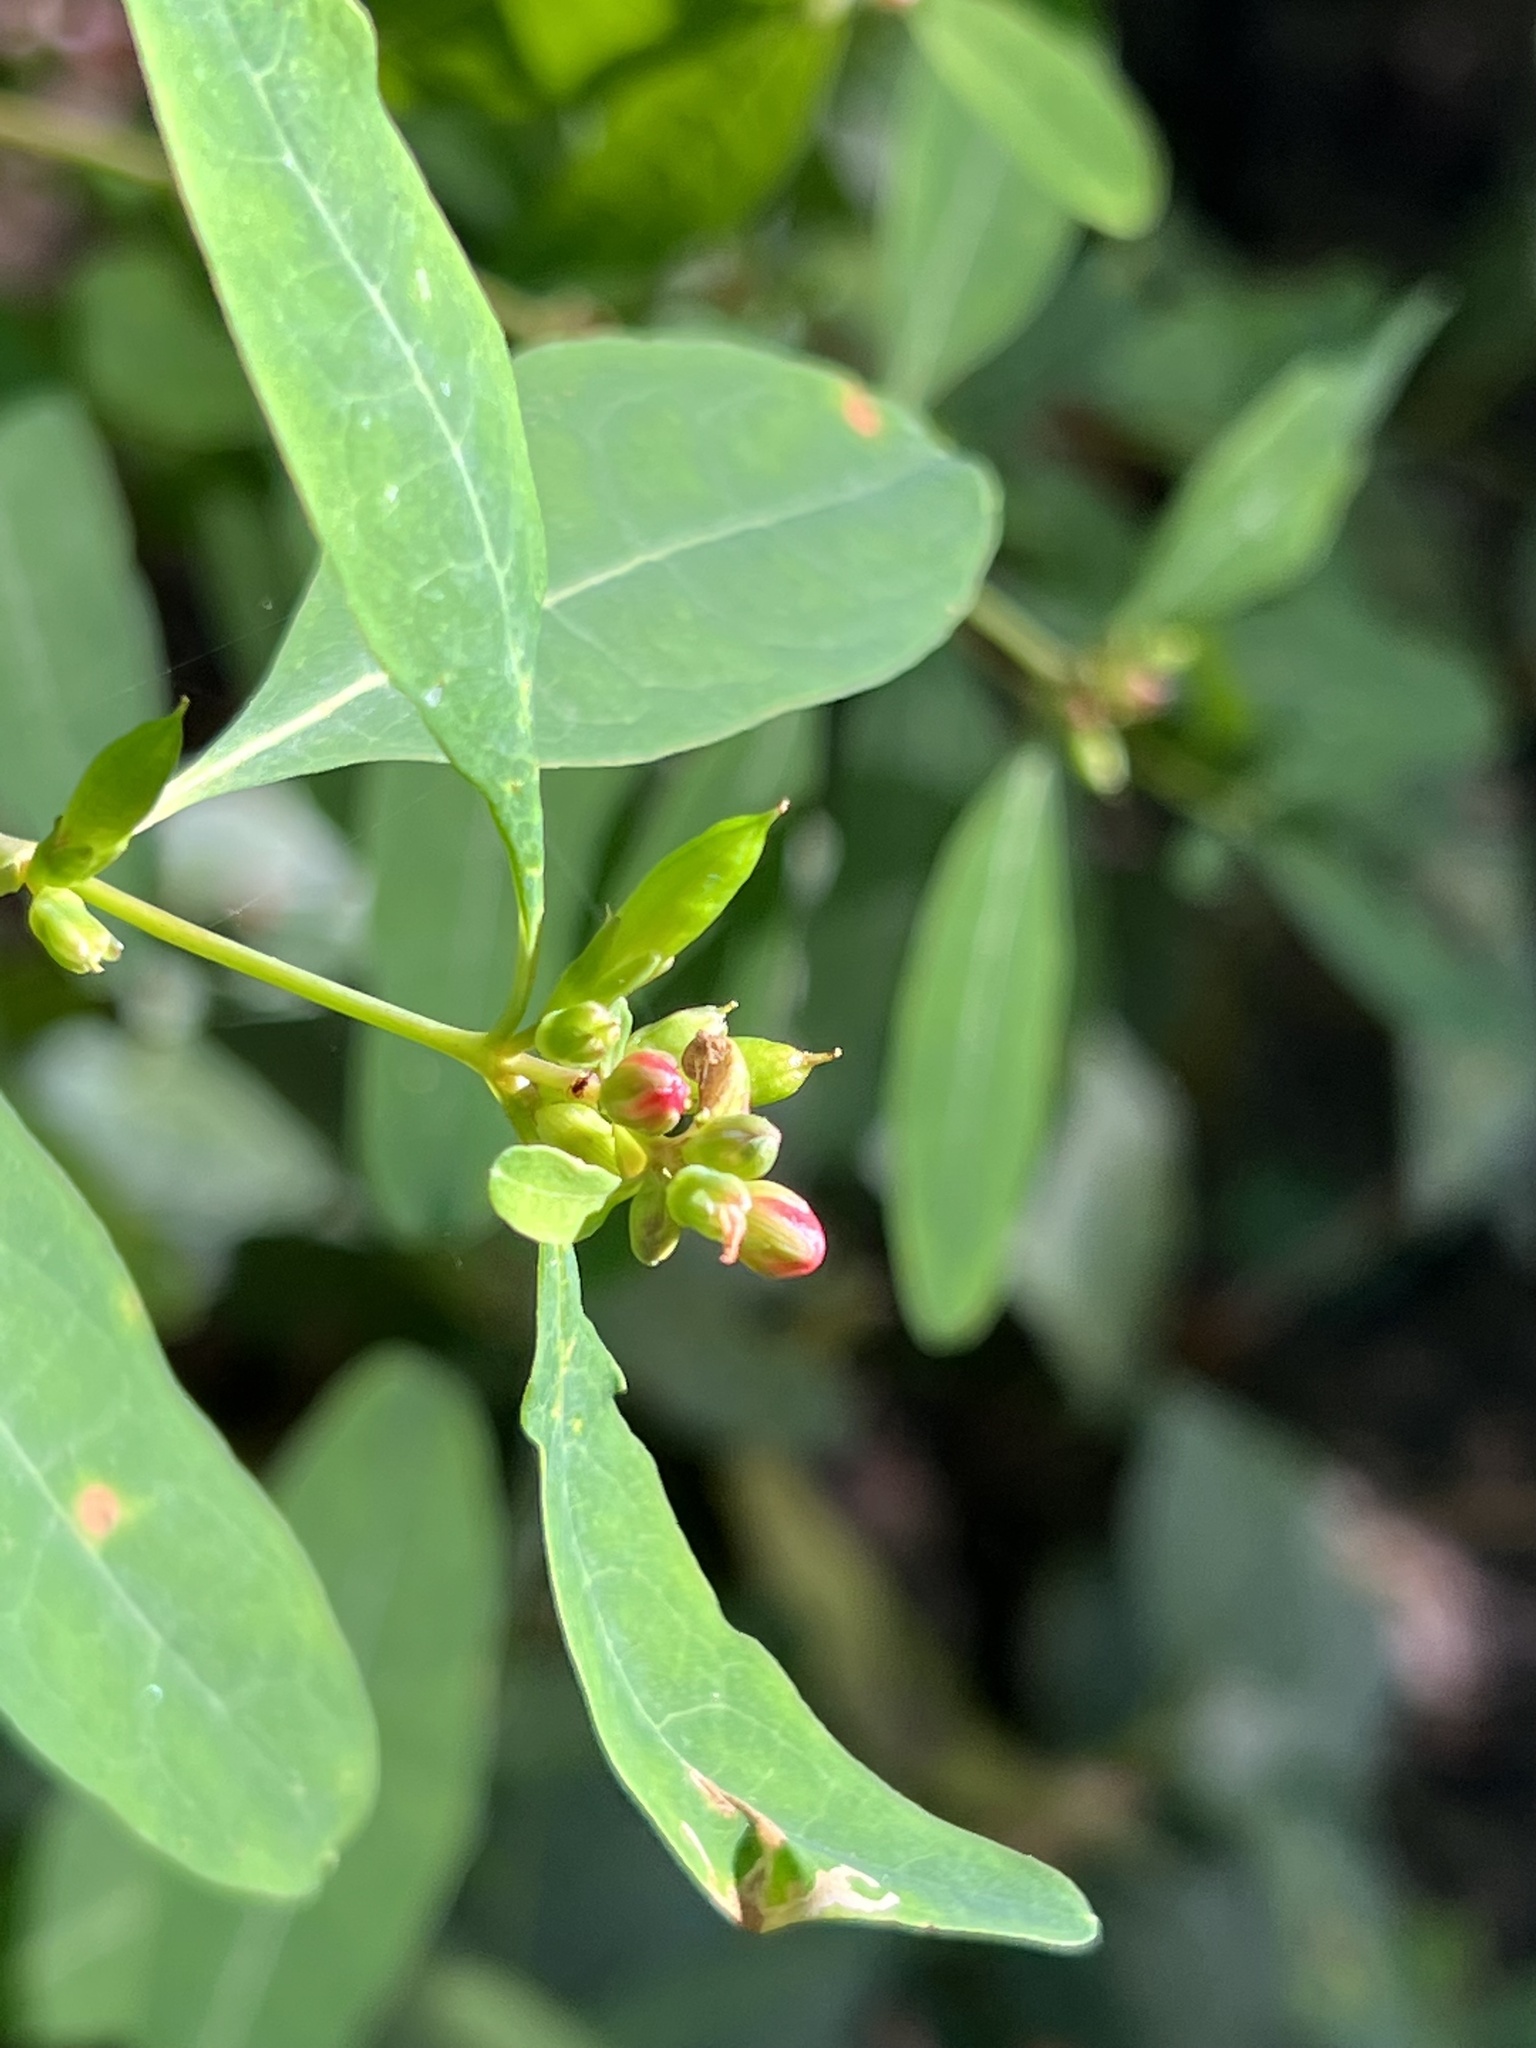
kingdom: Plantae
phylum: Tracheophyta
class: Magnoliopsida
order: Malpighiales
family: Hypericaceae
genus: Triadenum
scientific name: Triadenum walteri
